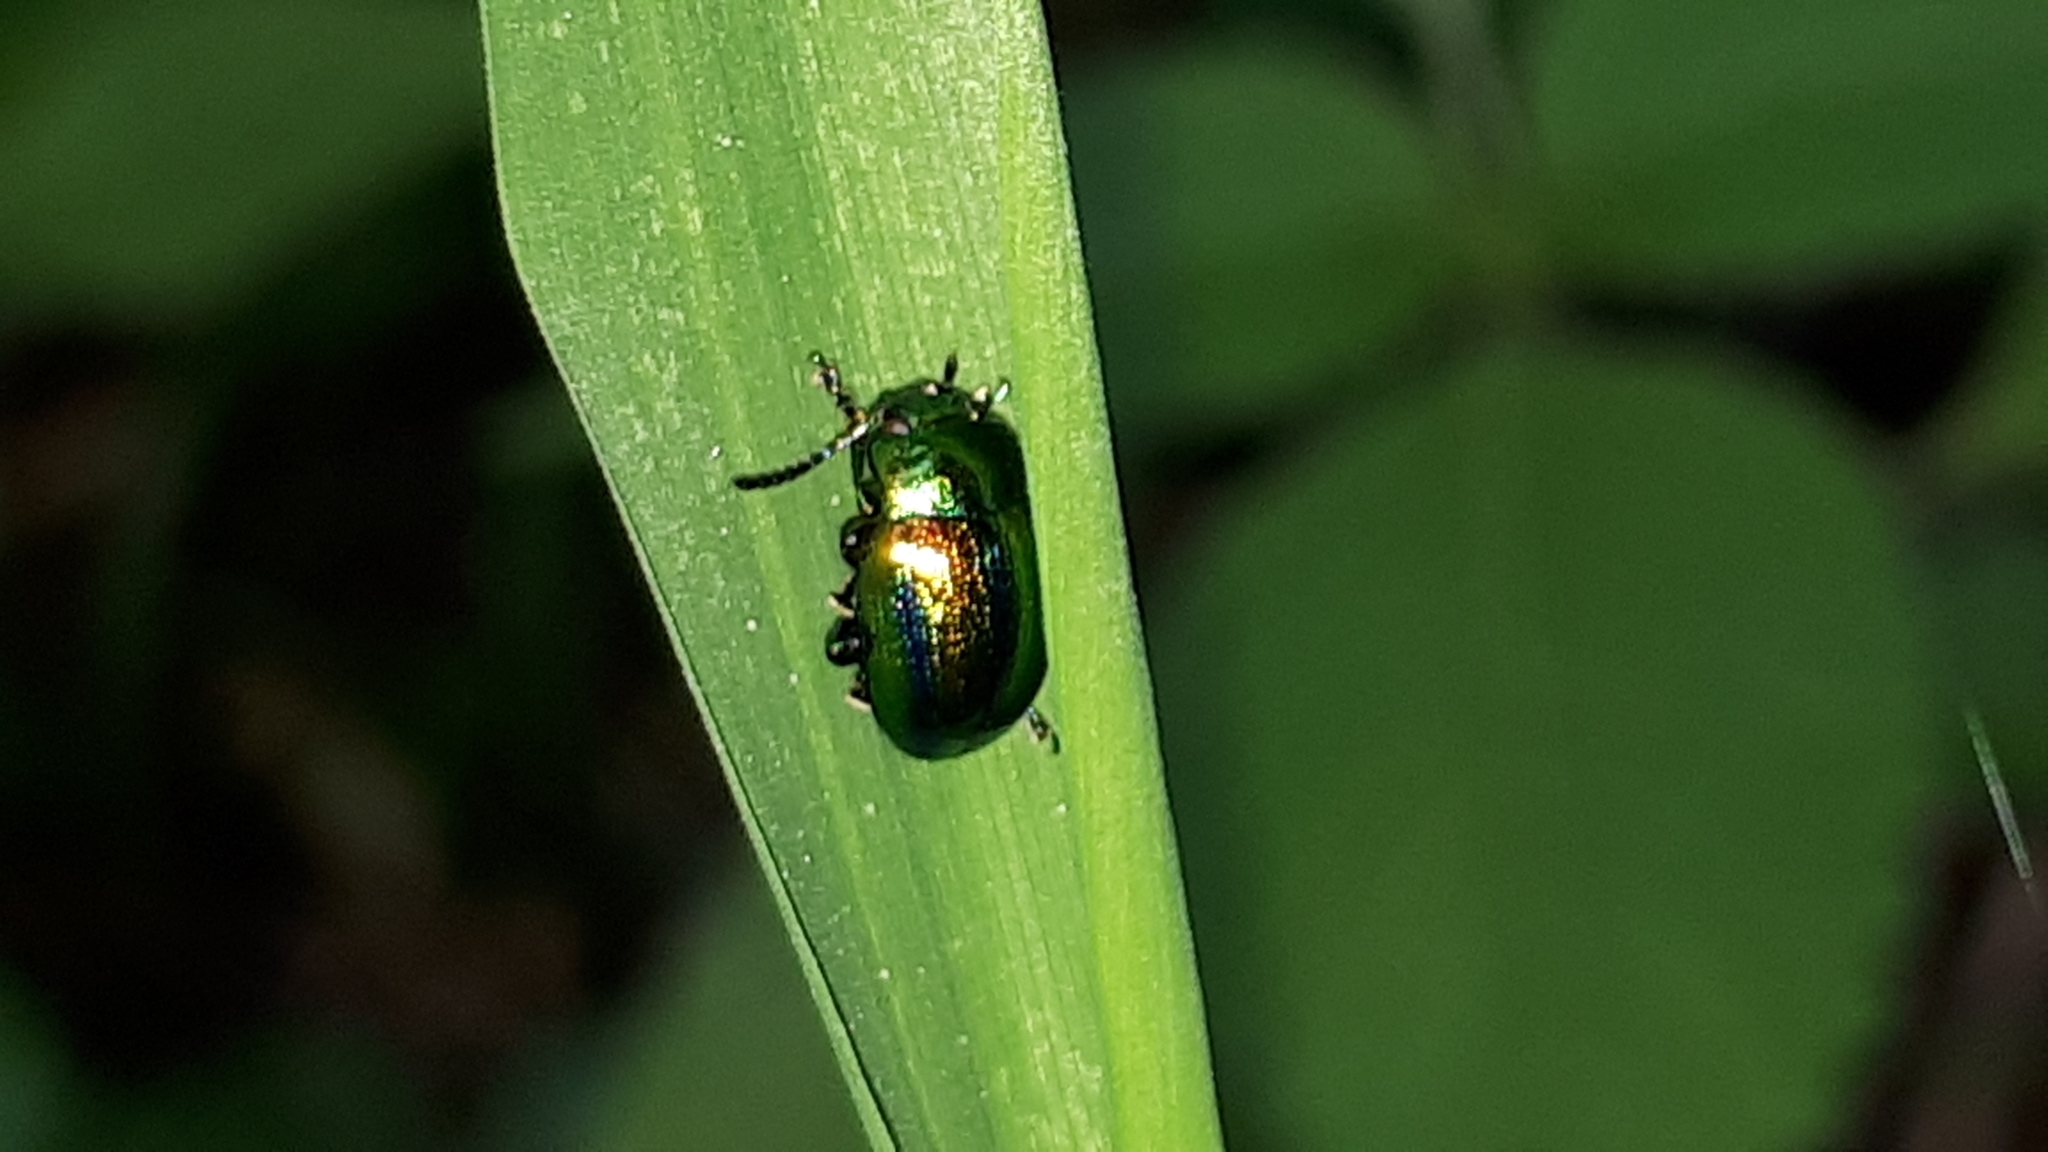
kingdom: Animalia
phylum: Arthropoda
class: Insecta
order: Coleoptera
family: Chrysomelidae
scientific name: Chrysomelidae
